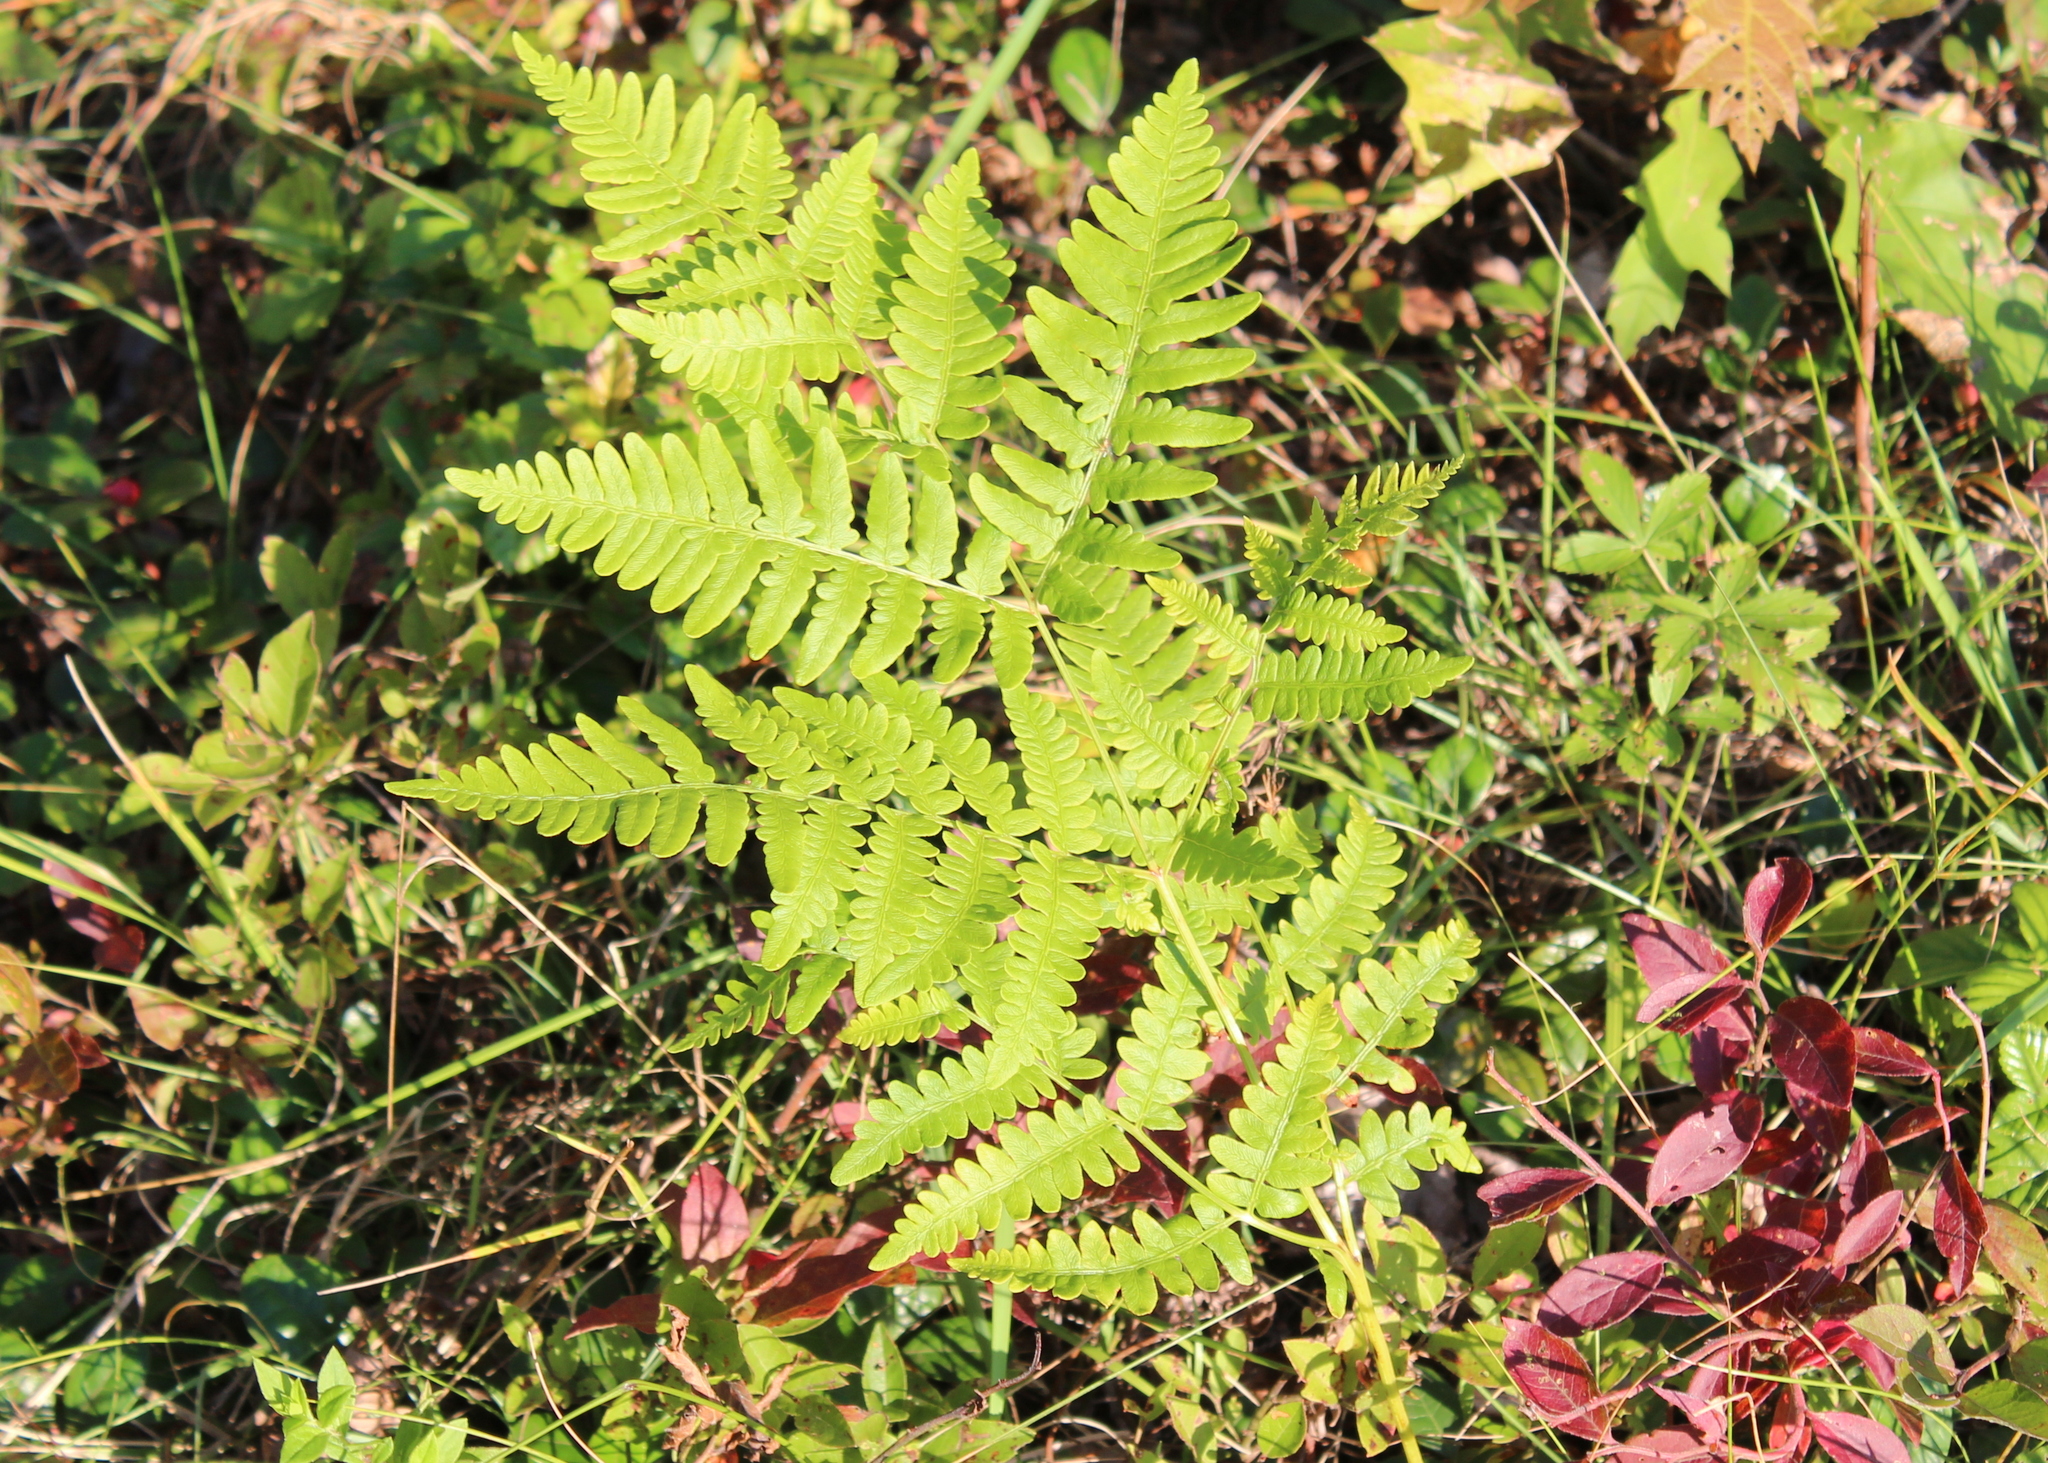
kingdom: Plantae
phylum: Tracheophyta
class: Polypodiopsida
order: Polypodiales
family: Dennstaedtiaceae
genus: Pteridium
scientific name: Pteridium aquilinum
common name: Bracken
